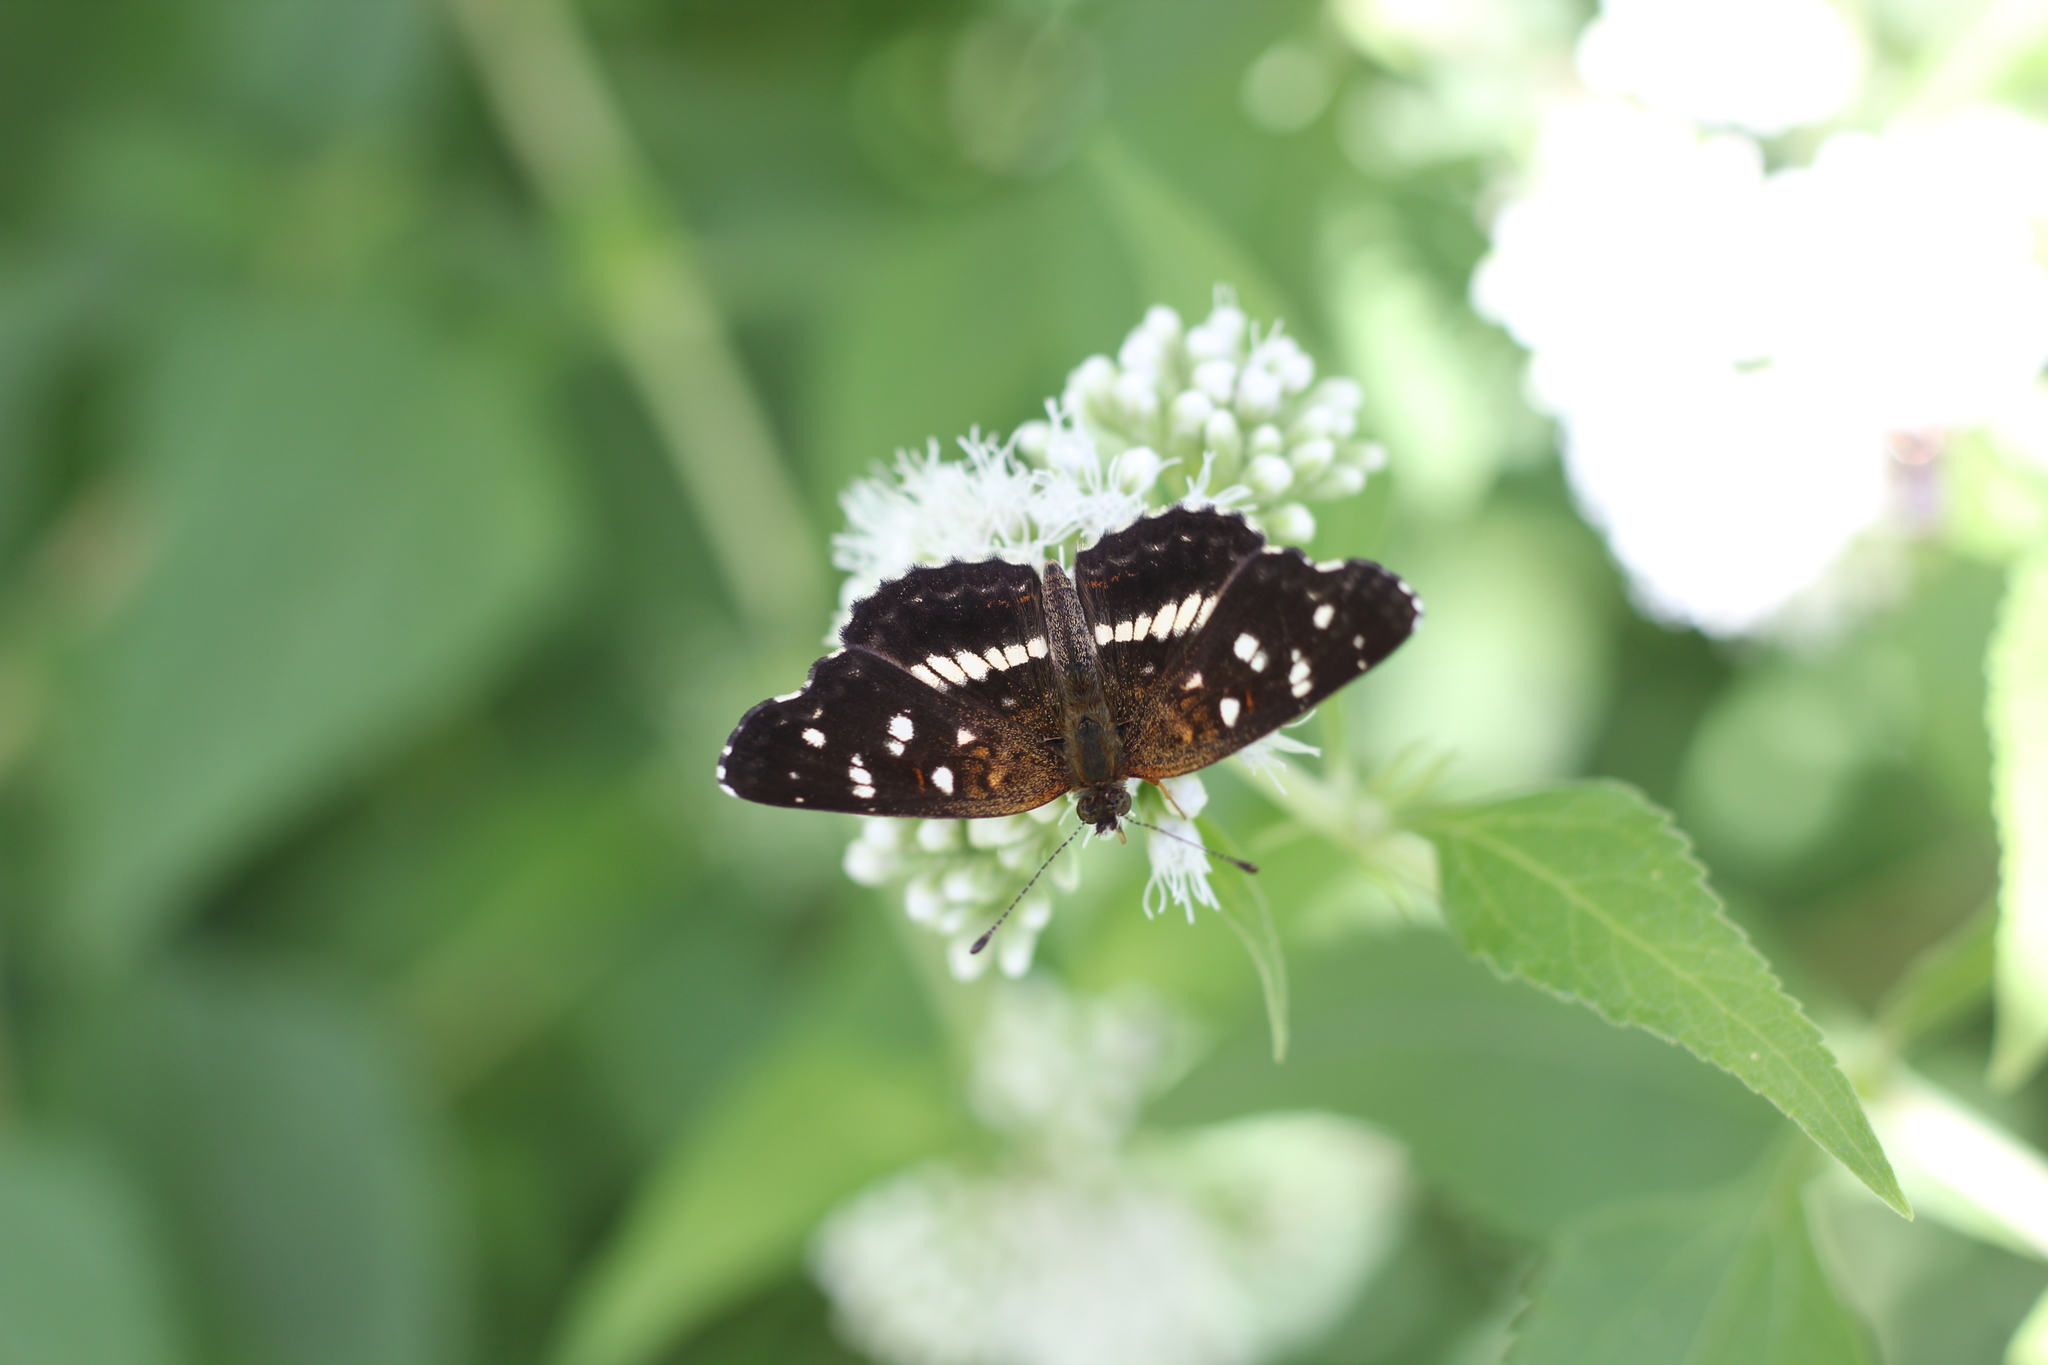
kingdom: Animalia
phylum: Arthropoda
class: Insecta
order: Lepidoptera
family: Nymphalidae
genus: Ortilia
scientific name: Ortilia ithra
